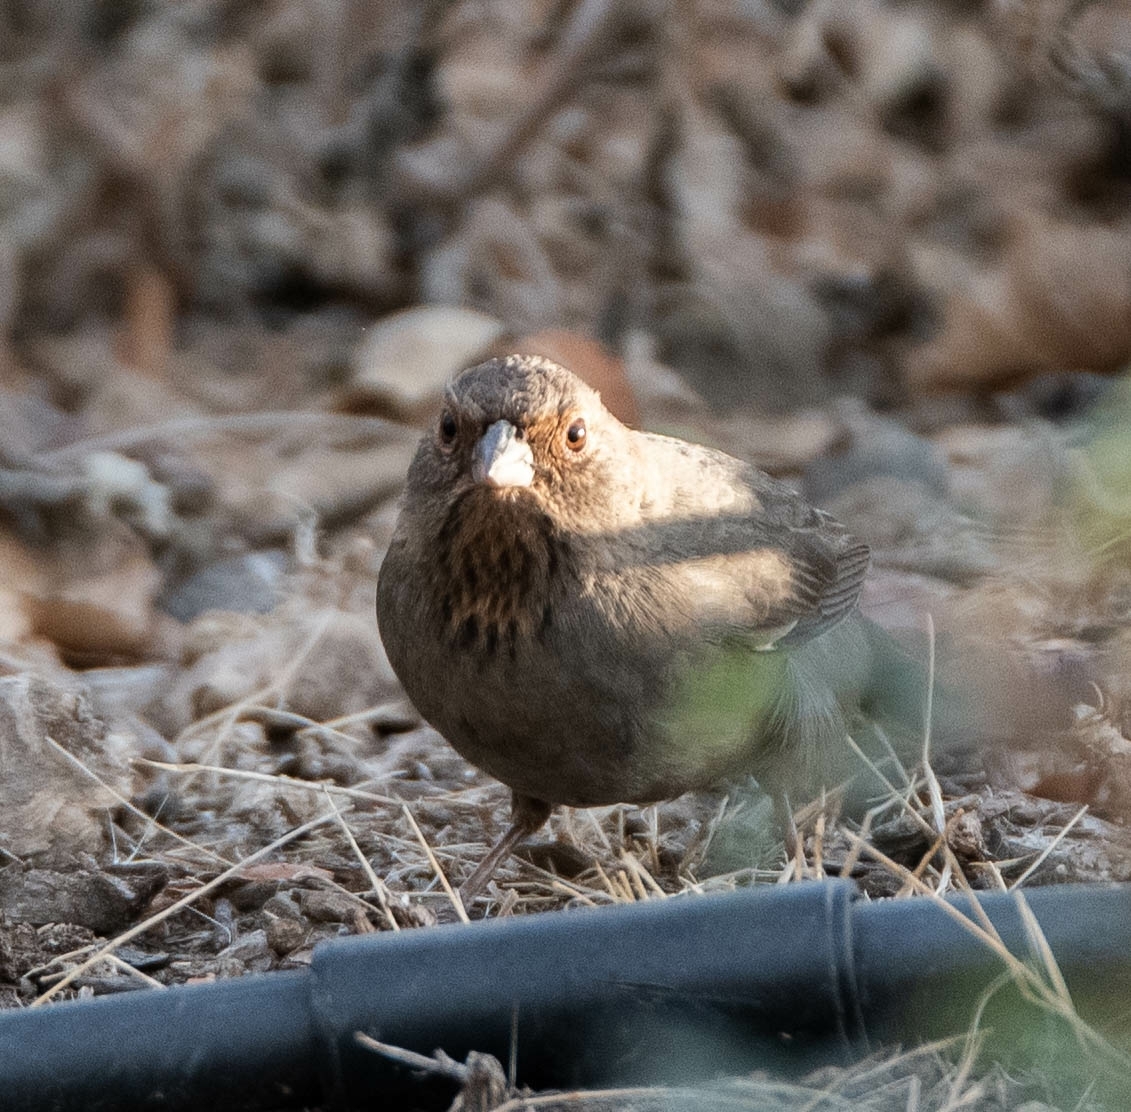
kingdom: Animalia
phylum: Chordata
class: Aves
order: Passeriformes
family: Passerellidae
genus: Melozone
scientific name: Melozone crissalis
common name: California towhee
